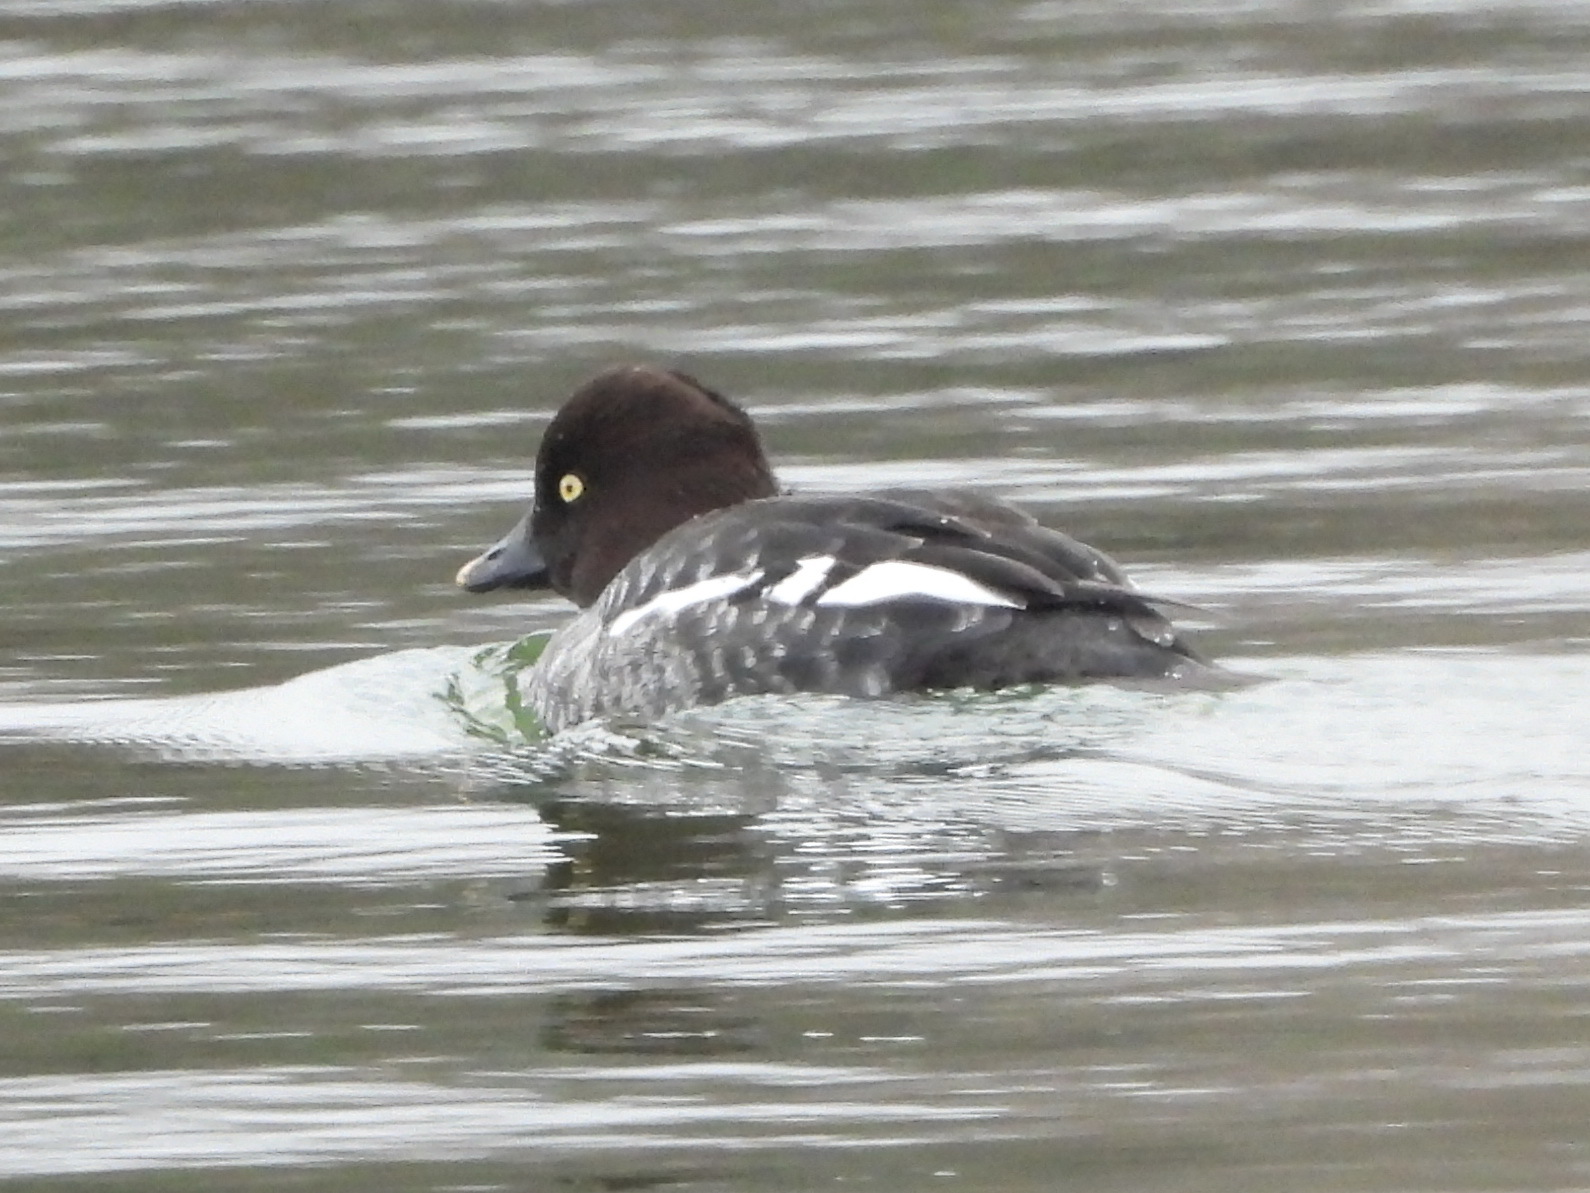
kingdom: Animalia
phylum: Chordata
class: Aves
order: Anseriformes
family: Anatidae
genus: Bucephala
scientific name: Bucephala clangula
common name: Common goldeneye
